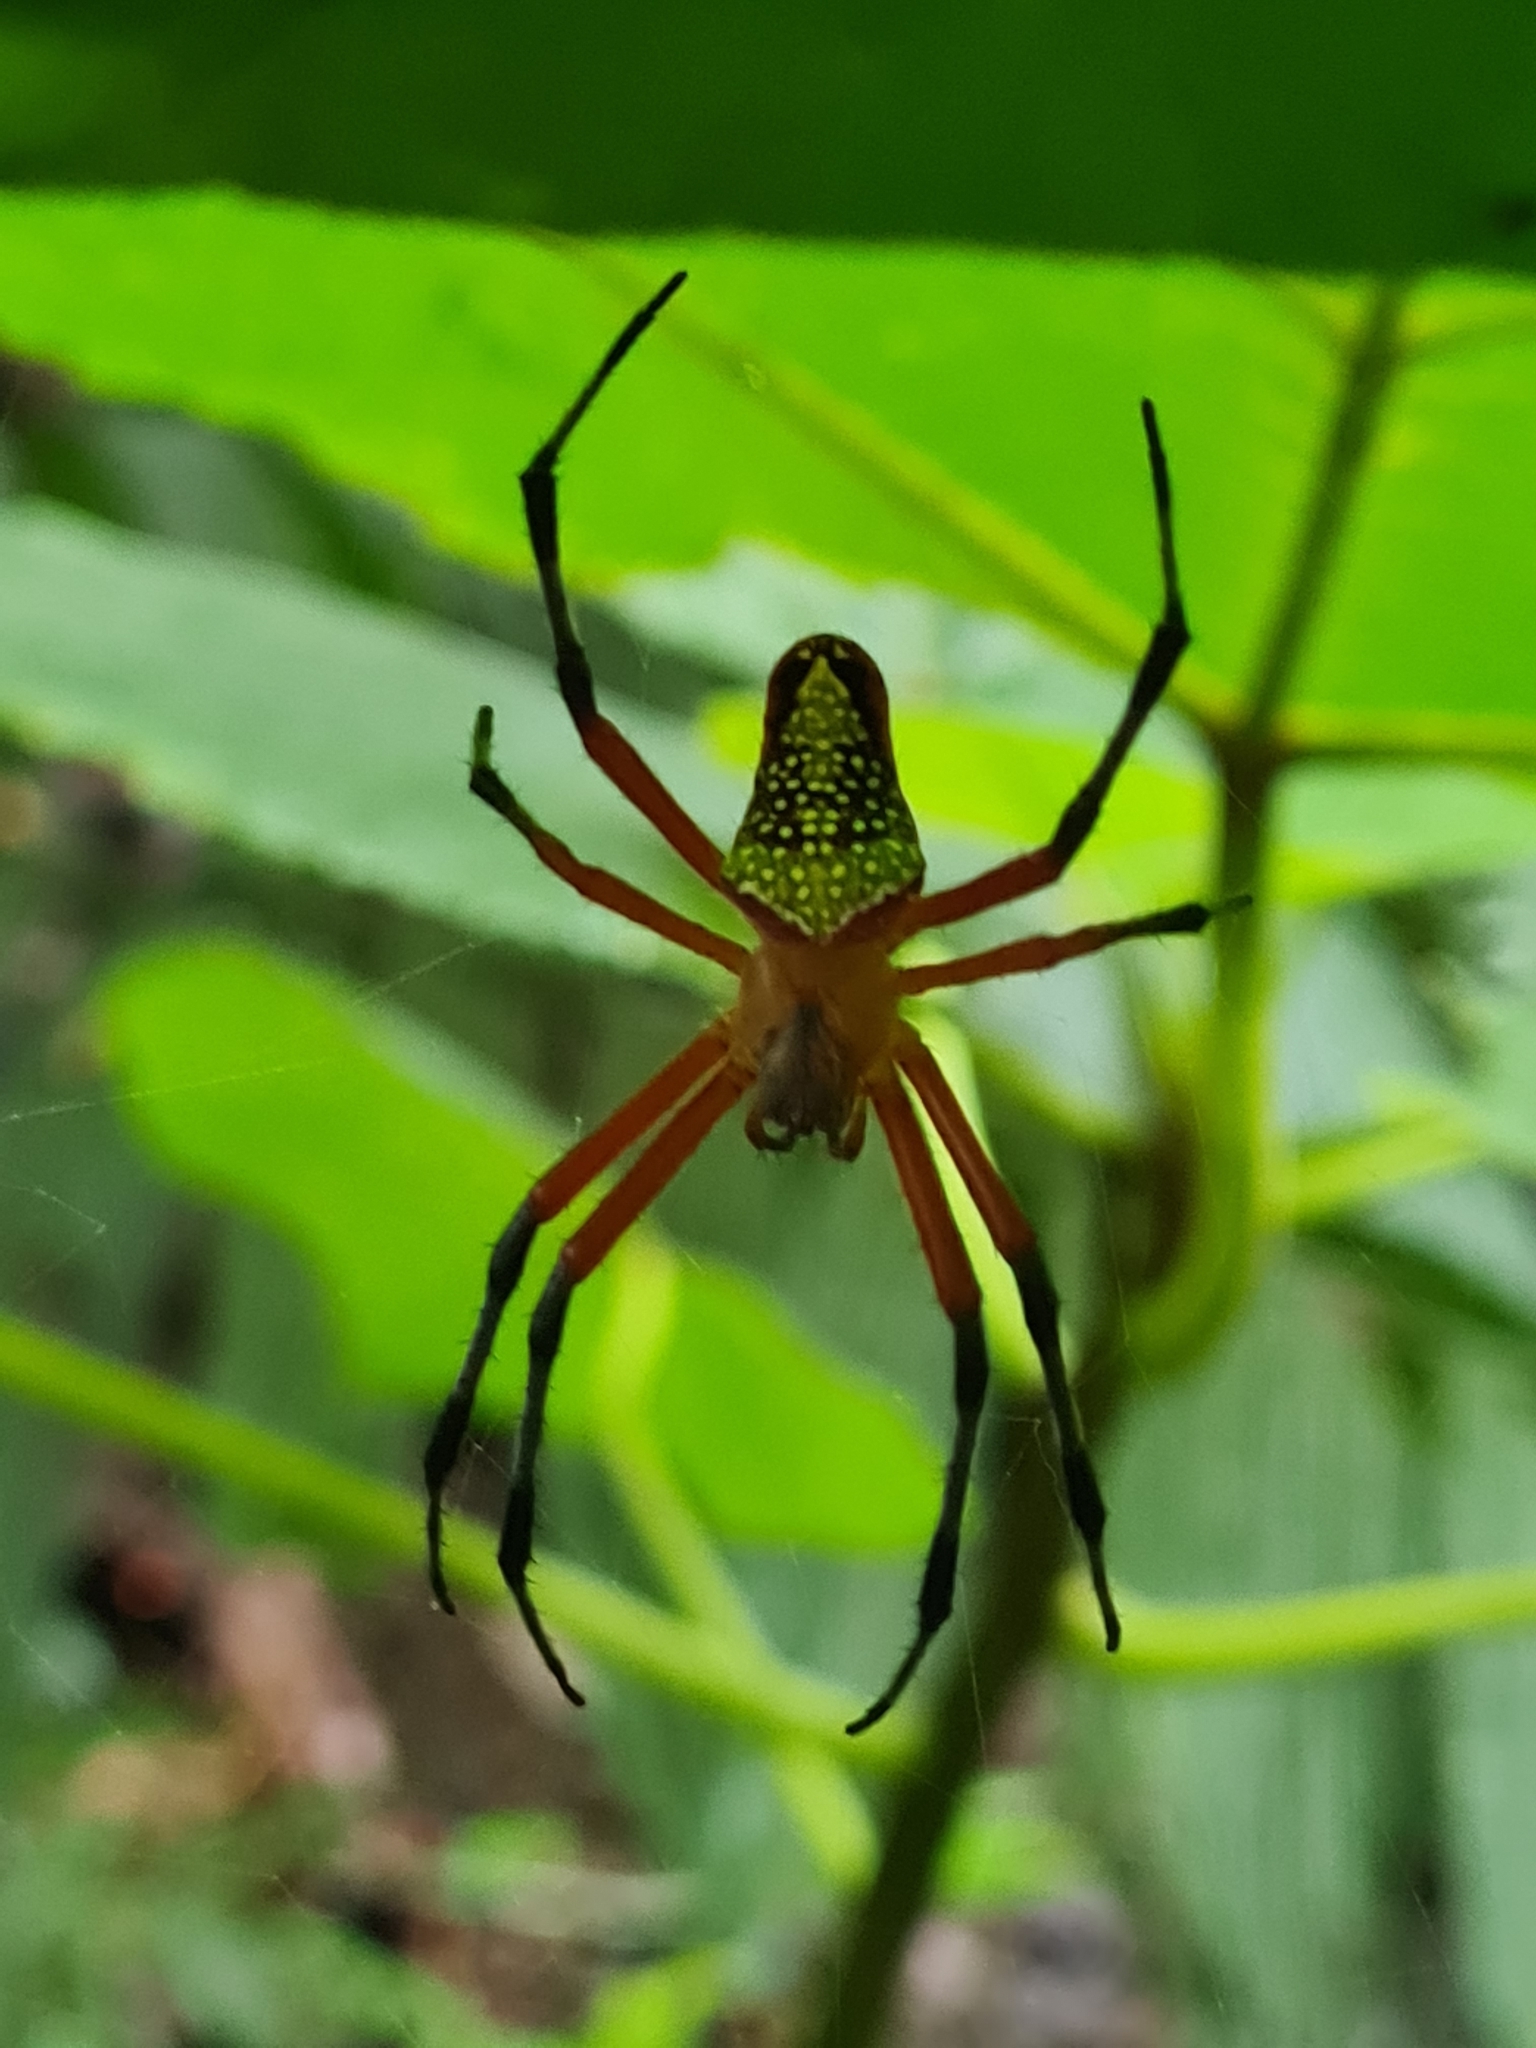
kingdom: Animalia
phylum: Arthropoda
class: Arachnida
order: Araneae
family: Araneidae
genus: Eriophora
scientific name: Eriophora nephiloides
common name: Orb weavers
